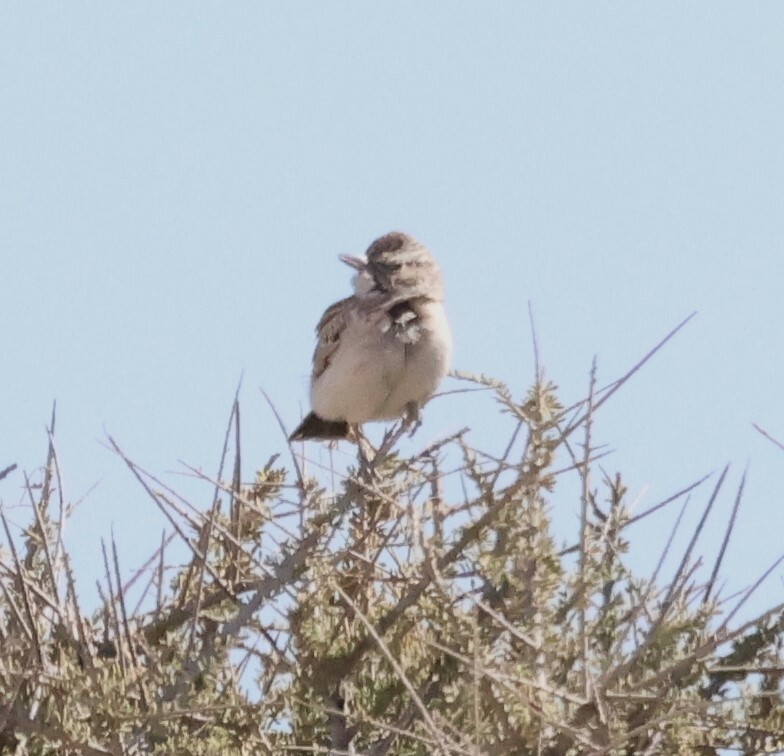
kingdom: Animalia
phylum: Chordata
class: Aves
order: Passeriformes
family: Alaudidae
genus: Calendulauda
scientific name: Calendulauda sabota
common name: Sabota lark
